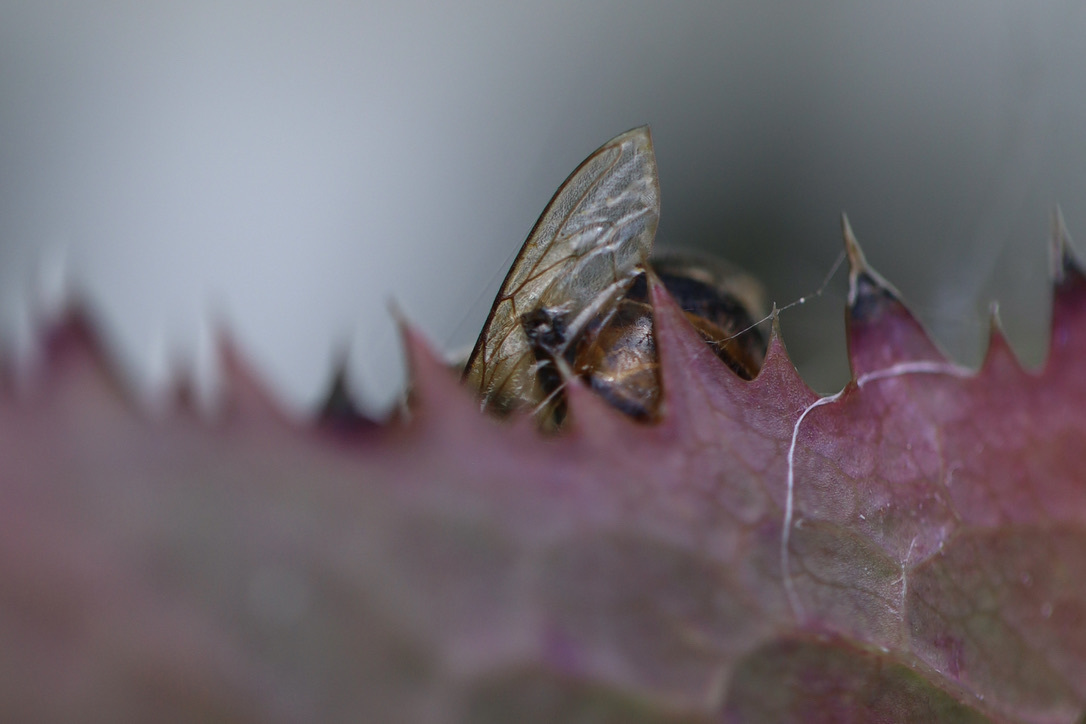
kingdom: Animalia
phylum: Arthropoda
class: Insecta
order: Hymenoptera
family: Apidae
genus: Apis
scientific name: Apis mellifera
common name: Honey bee
